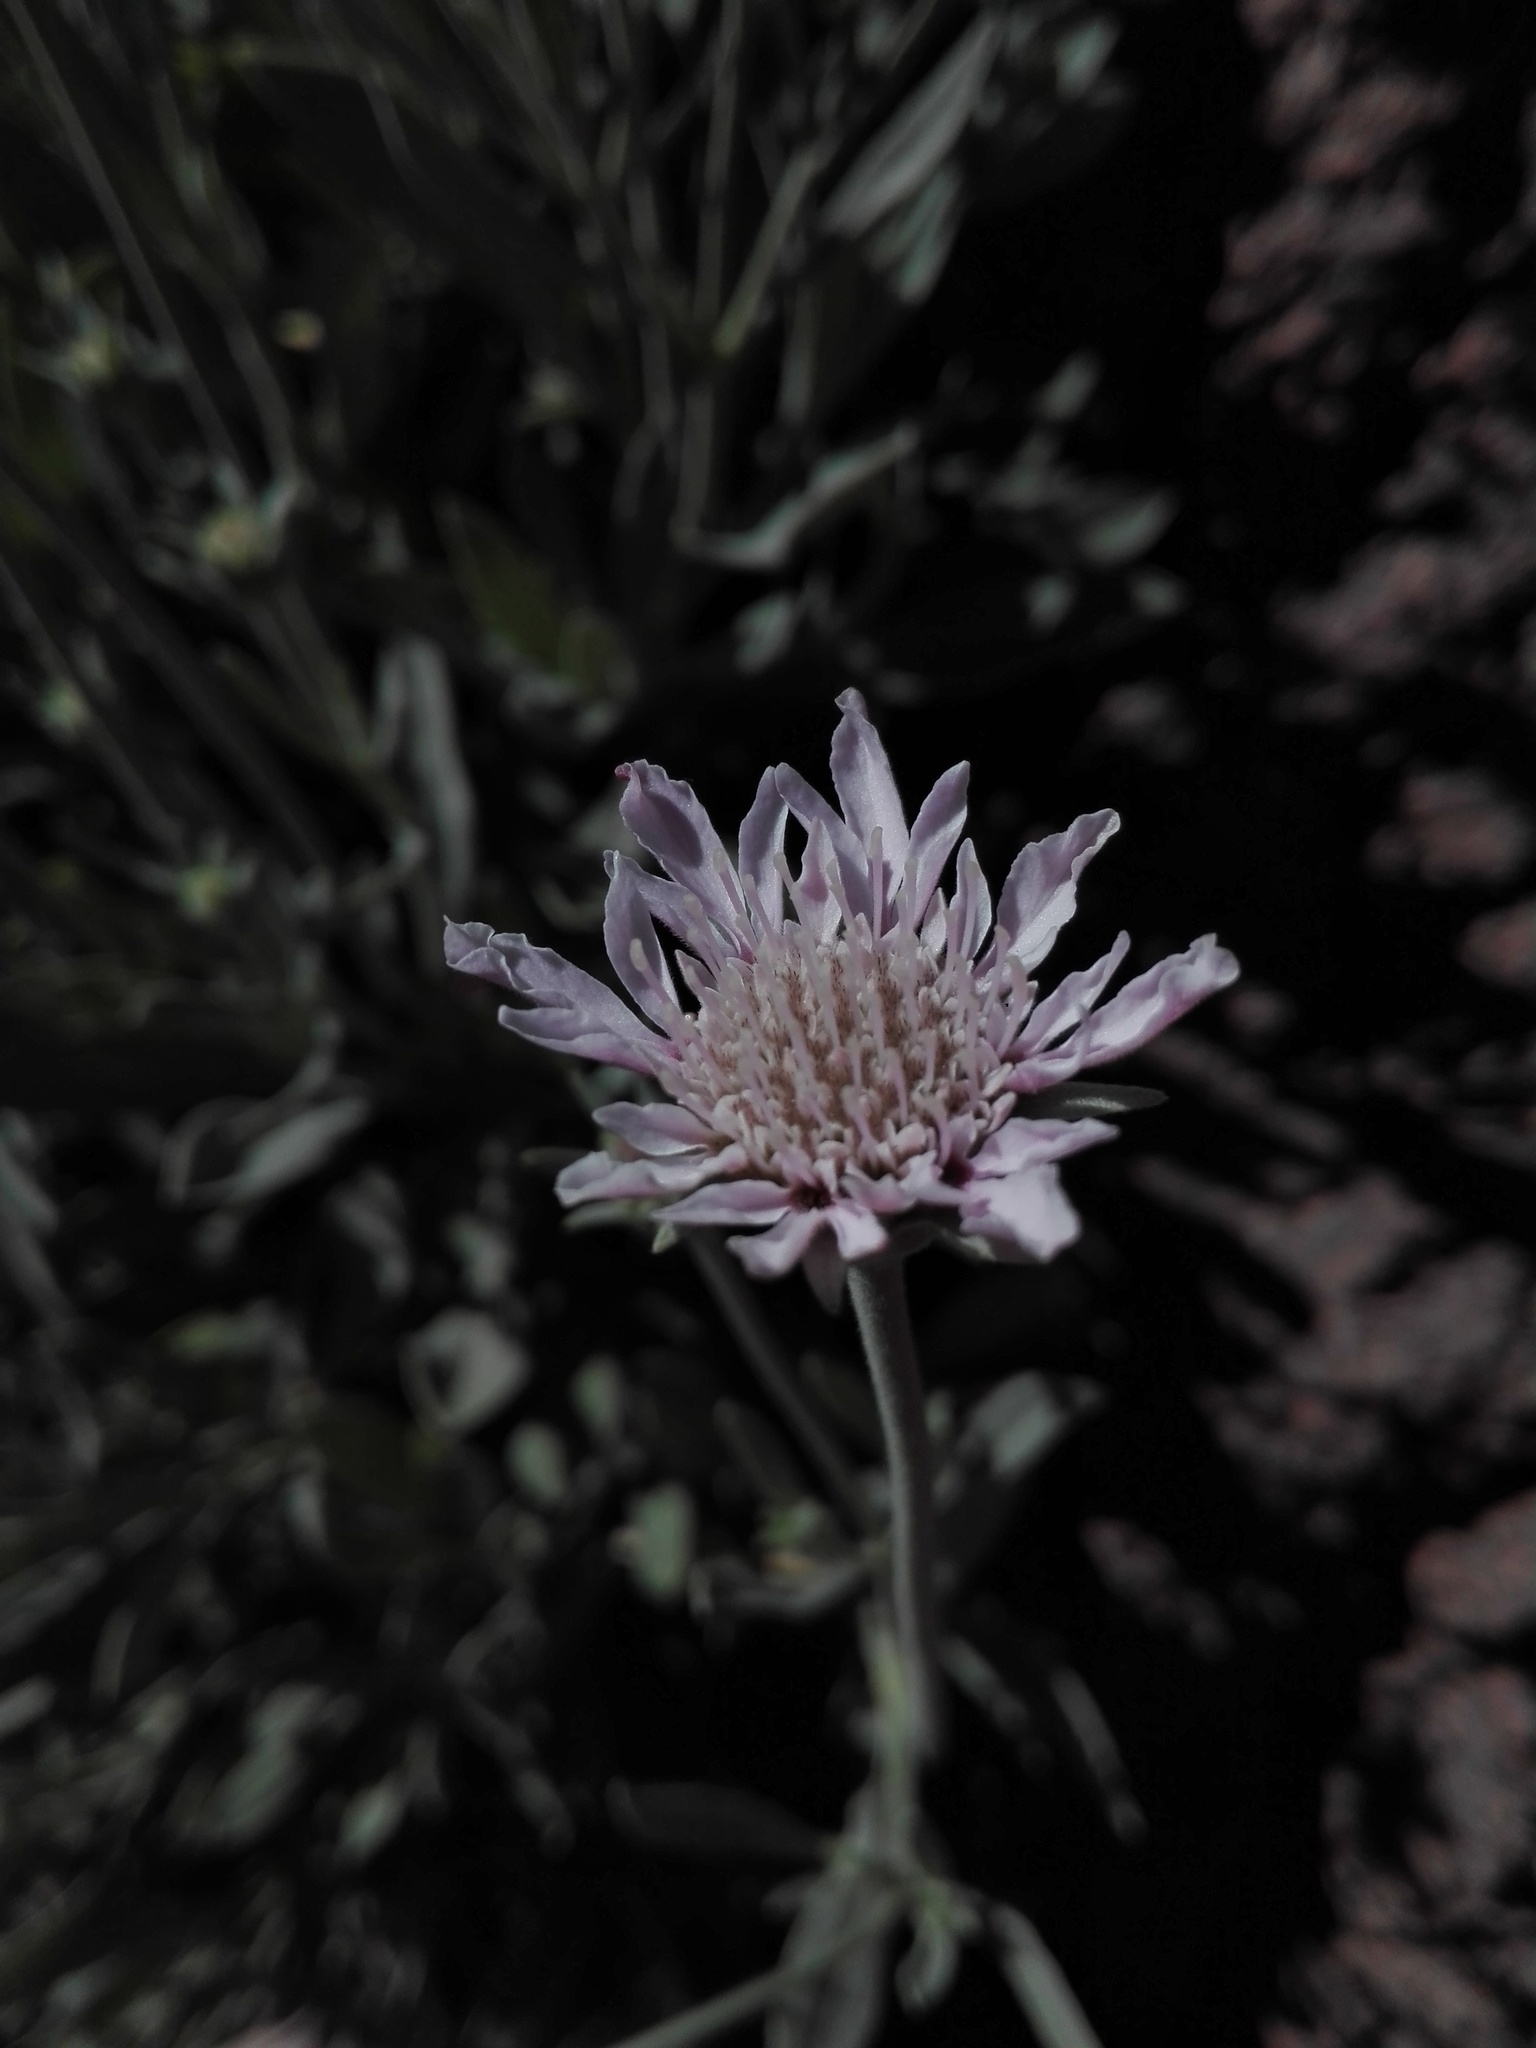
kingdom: Plantae
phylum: Tracheophyta
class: Magnoliopsida
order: Dipsacales
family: Caprifoliaceae
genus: Pterocephalus
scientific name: Pterocephalus lasiospermus
